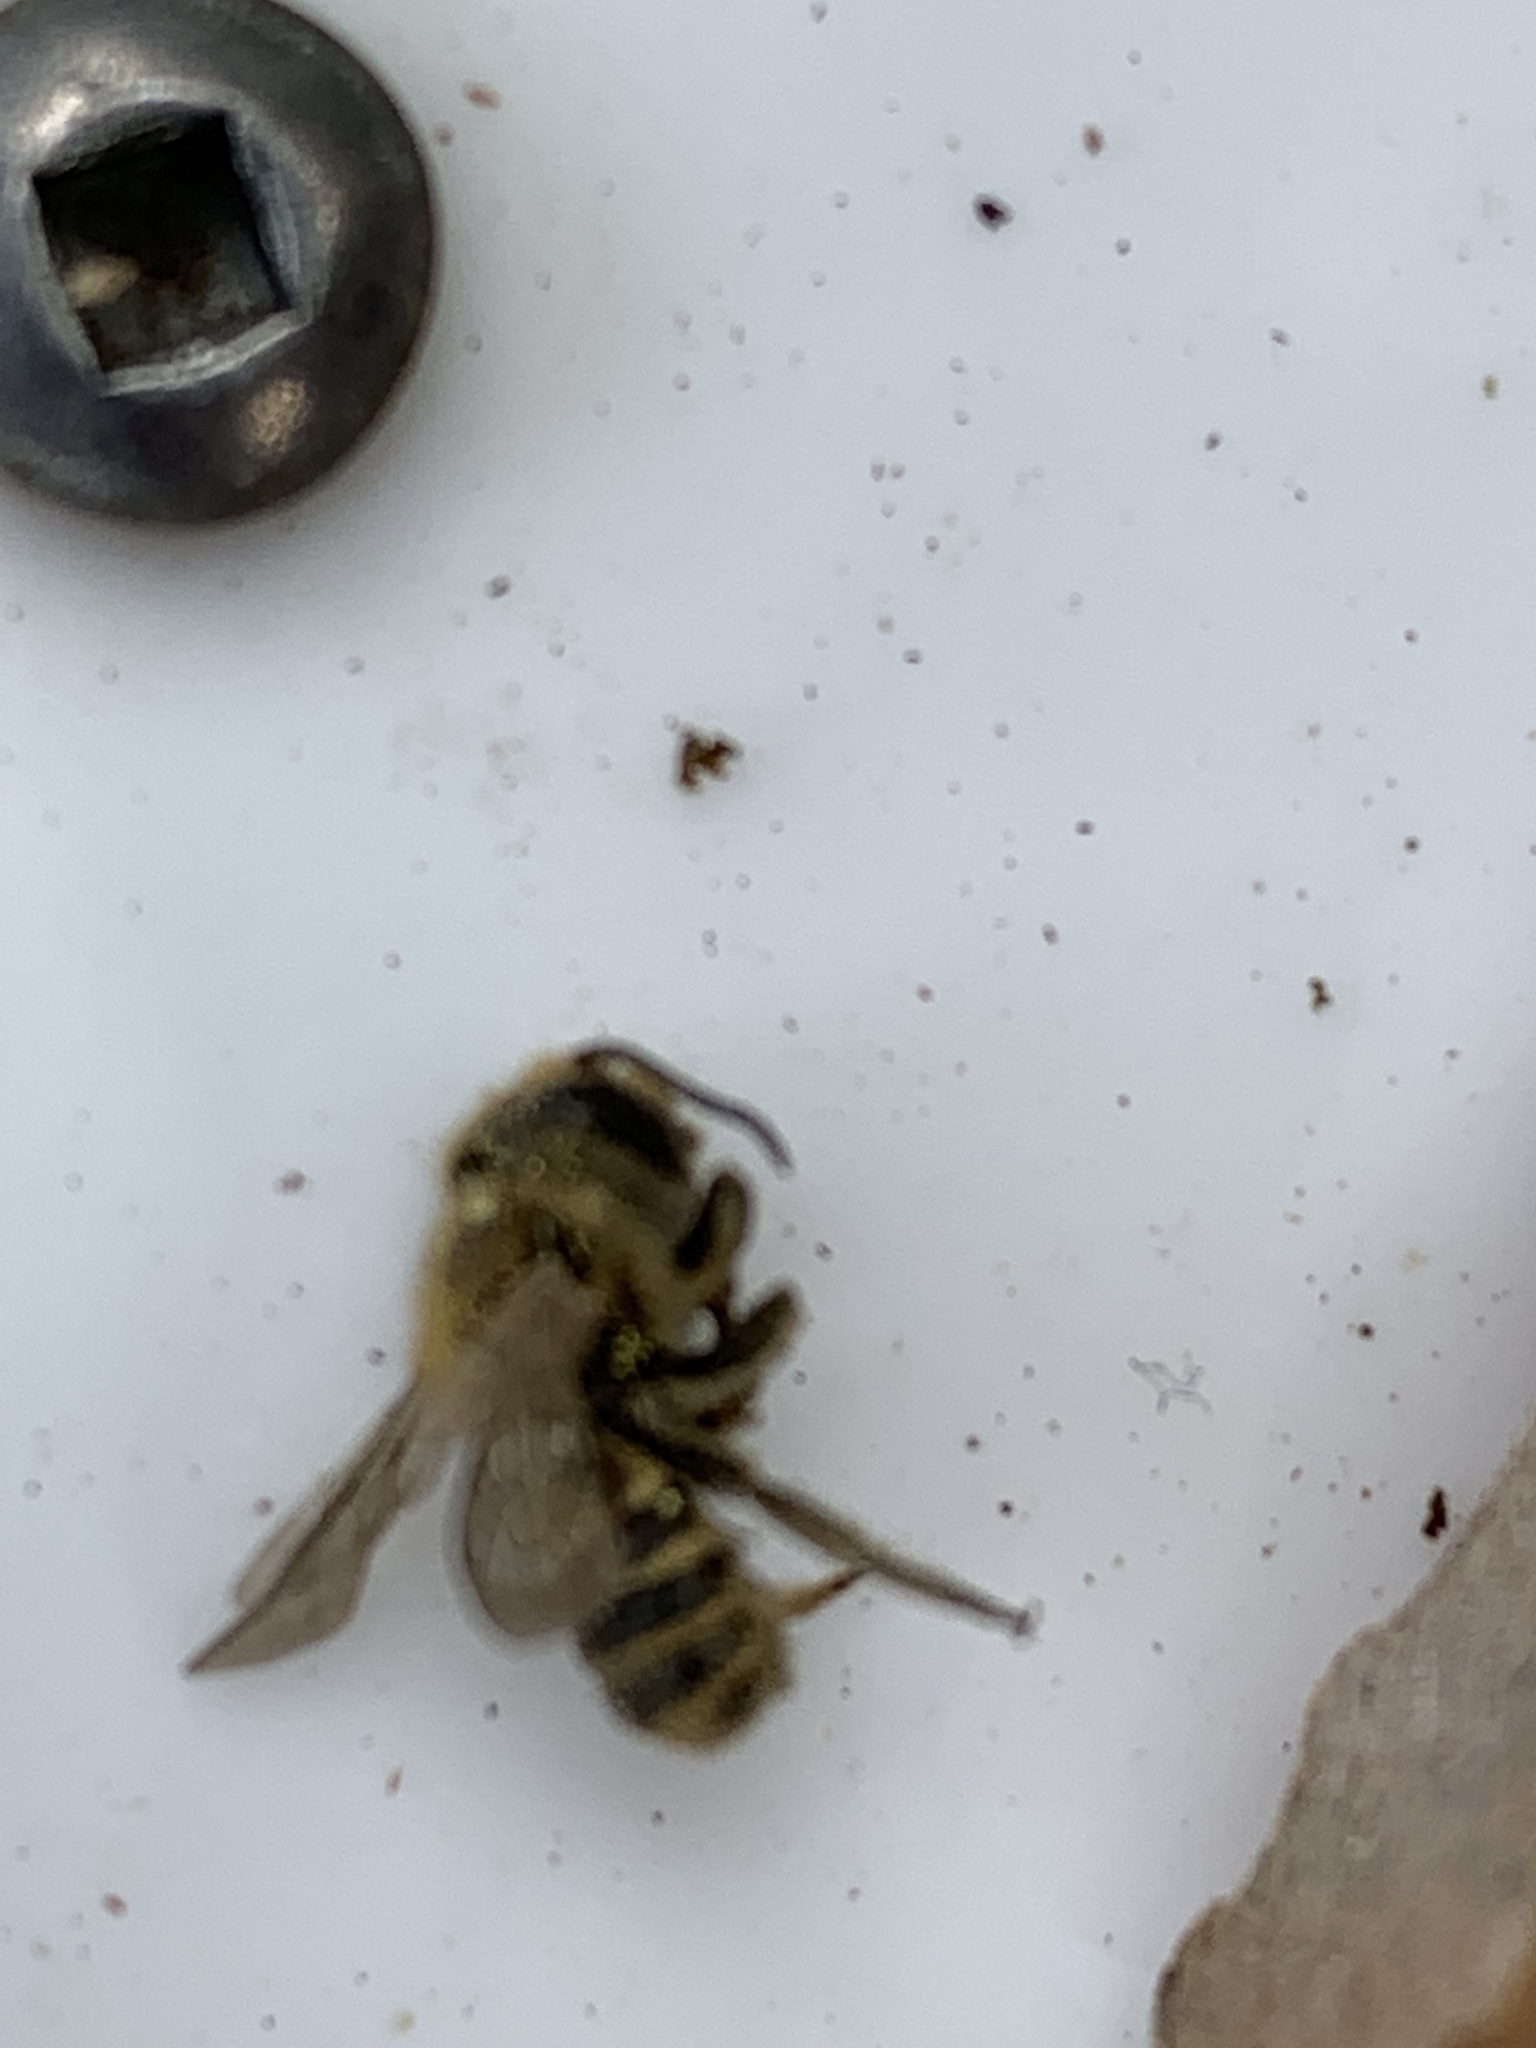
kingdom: Animalia
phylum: Arthropoda
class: Insecta
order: Hymenoptera
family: Megachilidae
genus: Megachile
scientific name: Megachile rotundata
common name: Alfalfa leafcutting bee
